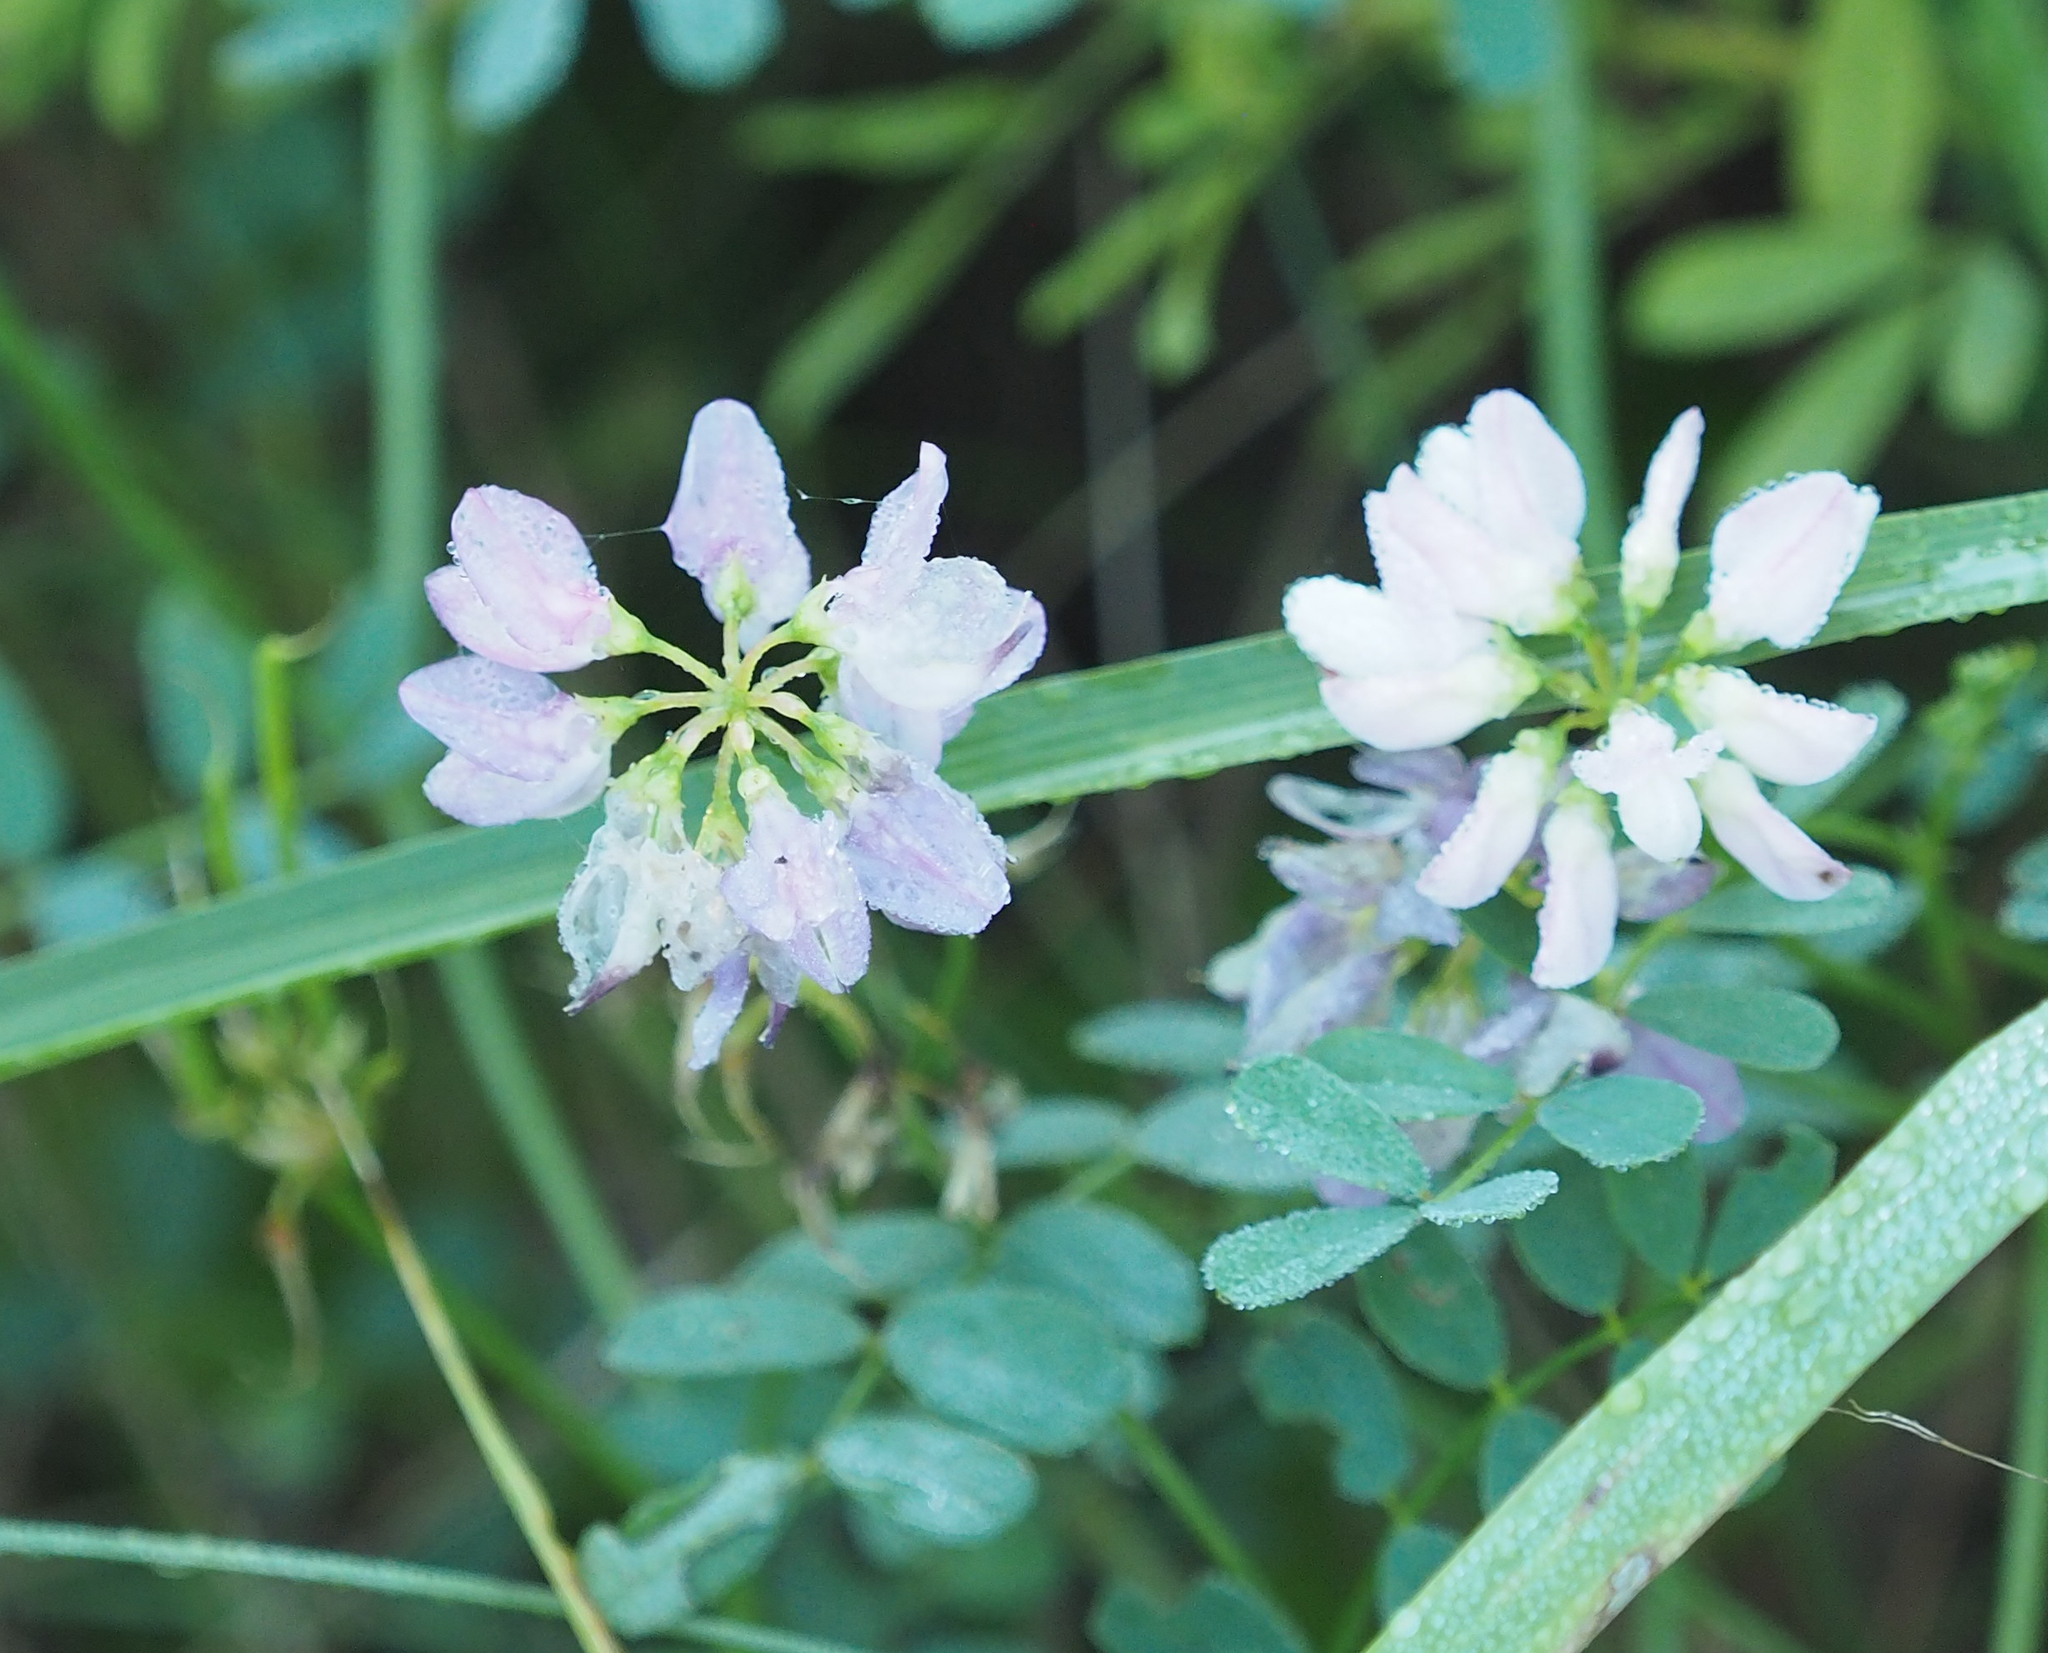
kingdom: Plantae
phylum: Tracheophyta
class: Magnoliopsida
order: Fabales
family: Fabaceae
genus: Coronilla
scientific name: Coronilla varia
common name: Crownvetch
